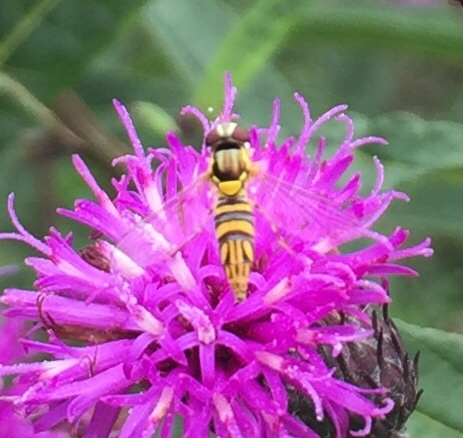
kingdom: Animalia
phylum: Arthropoda
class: Insecta
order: Diptera
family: Syrphidae
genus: Allograpta
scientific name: Allograpta obliqua
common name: Common oblique syrphid
